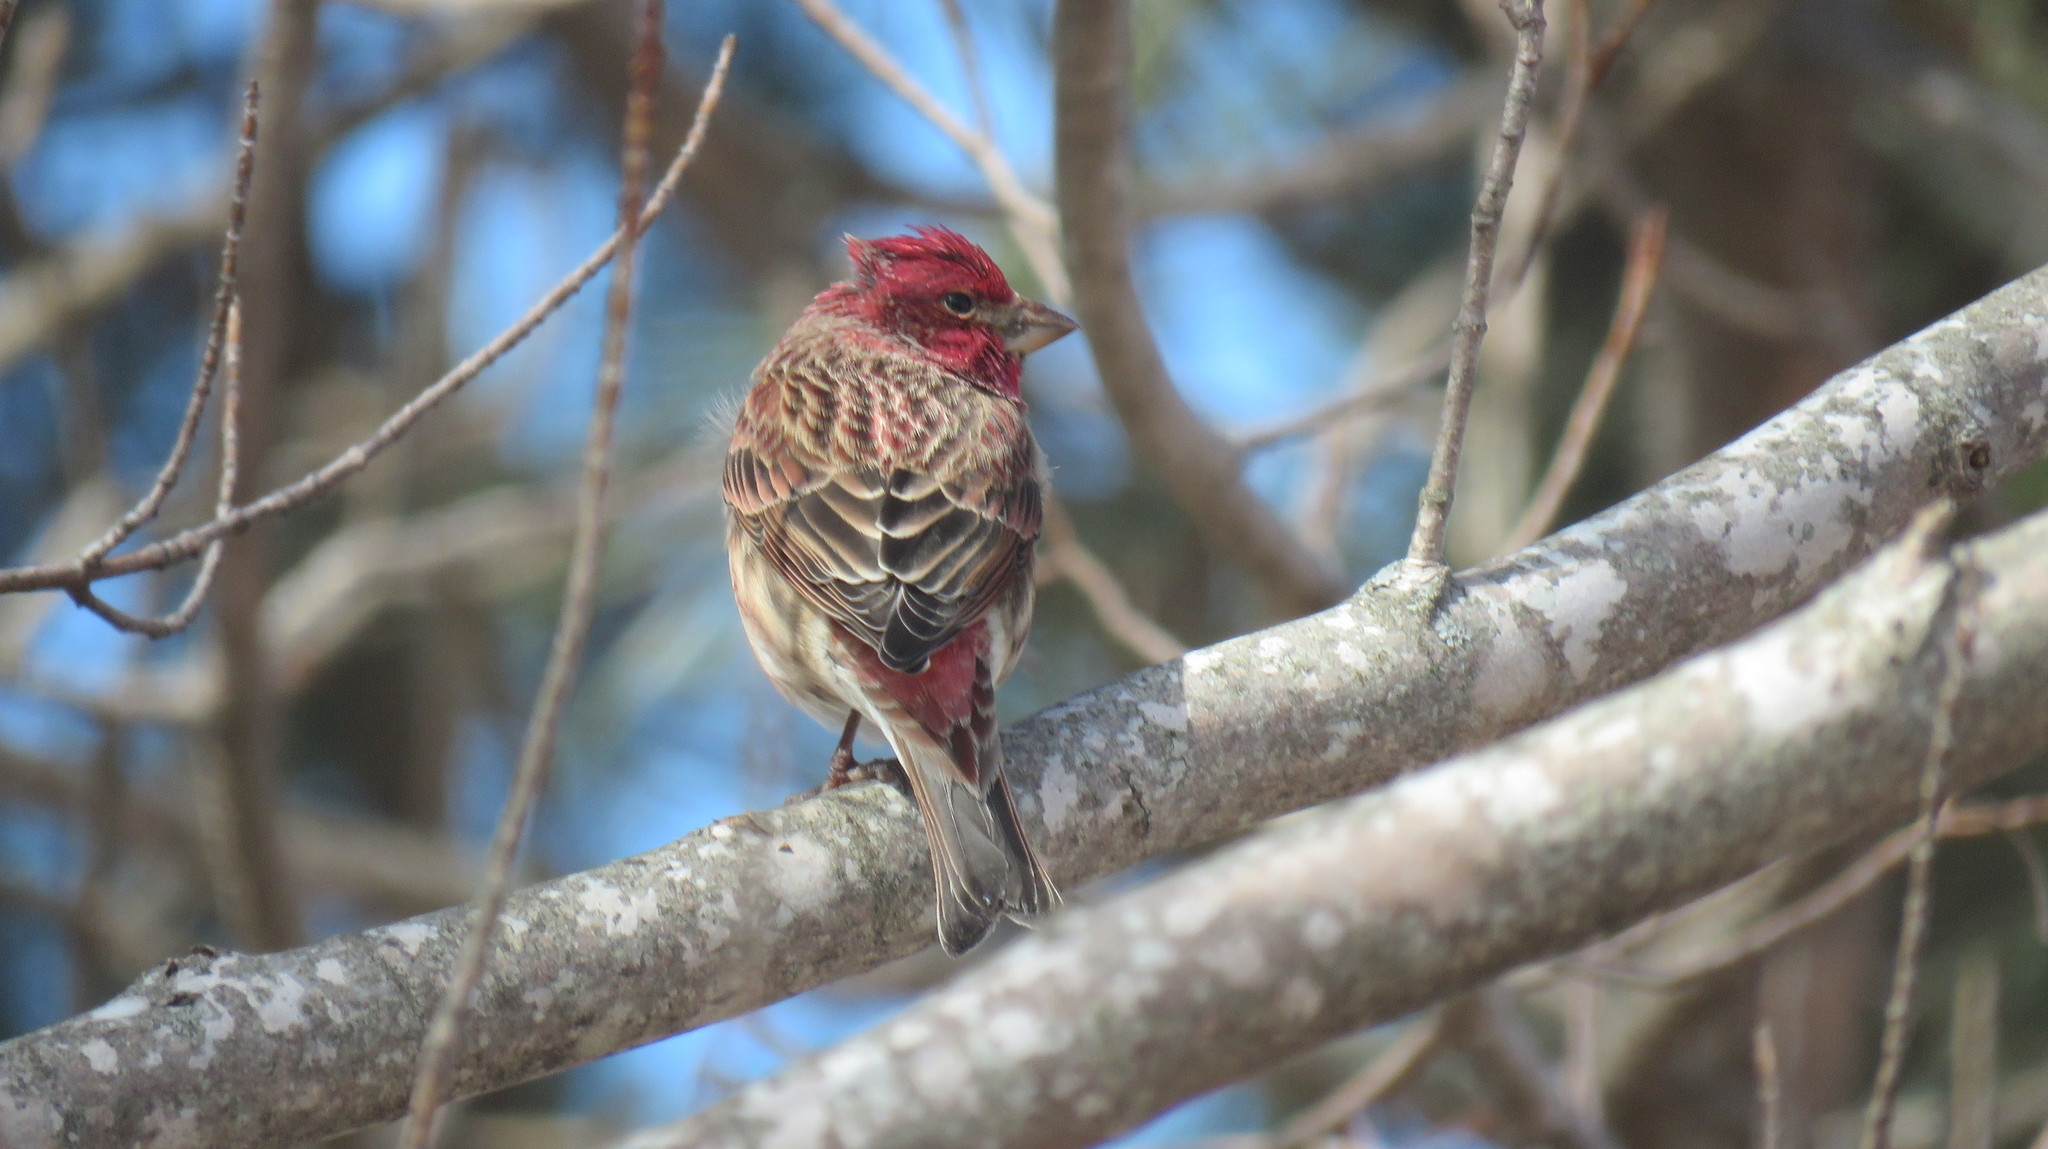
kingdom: Animalia
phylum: Chordata
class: Aves
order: Passeriformes
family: Fringillidae
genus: Haemorhous
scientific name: Haemorhous purpureus
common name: Purple finch
